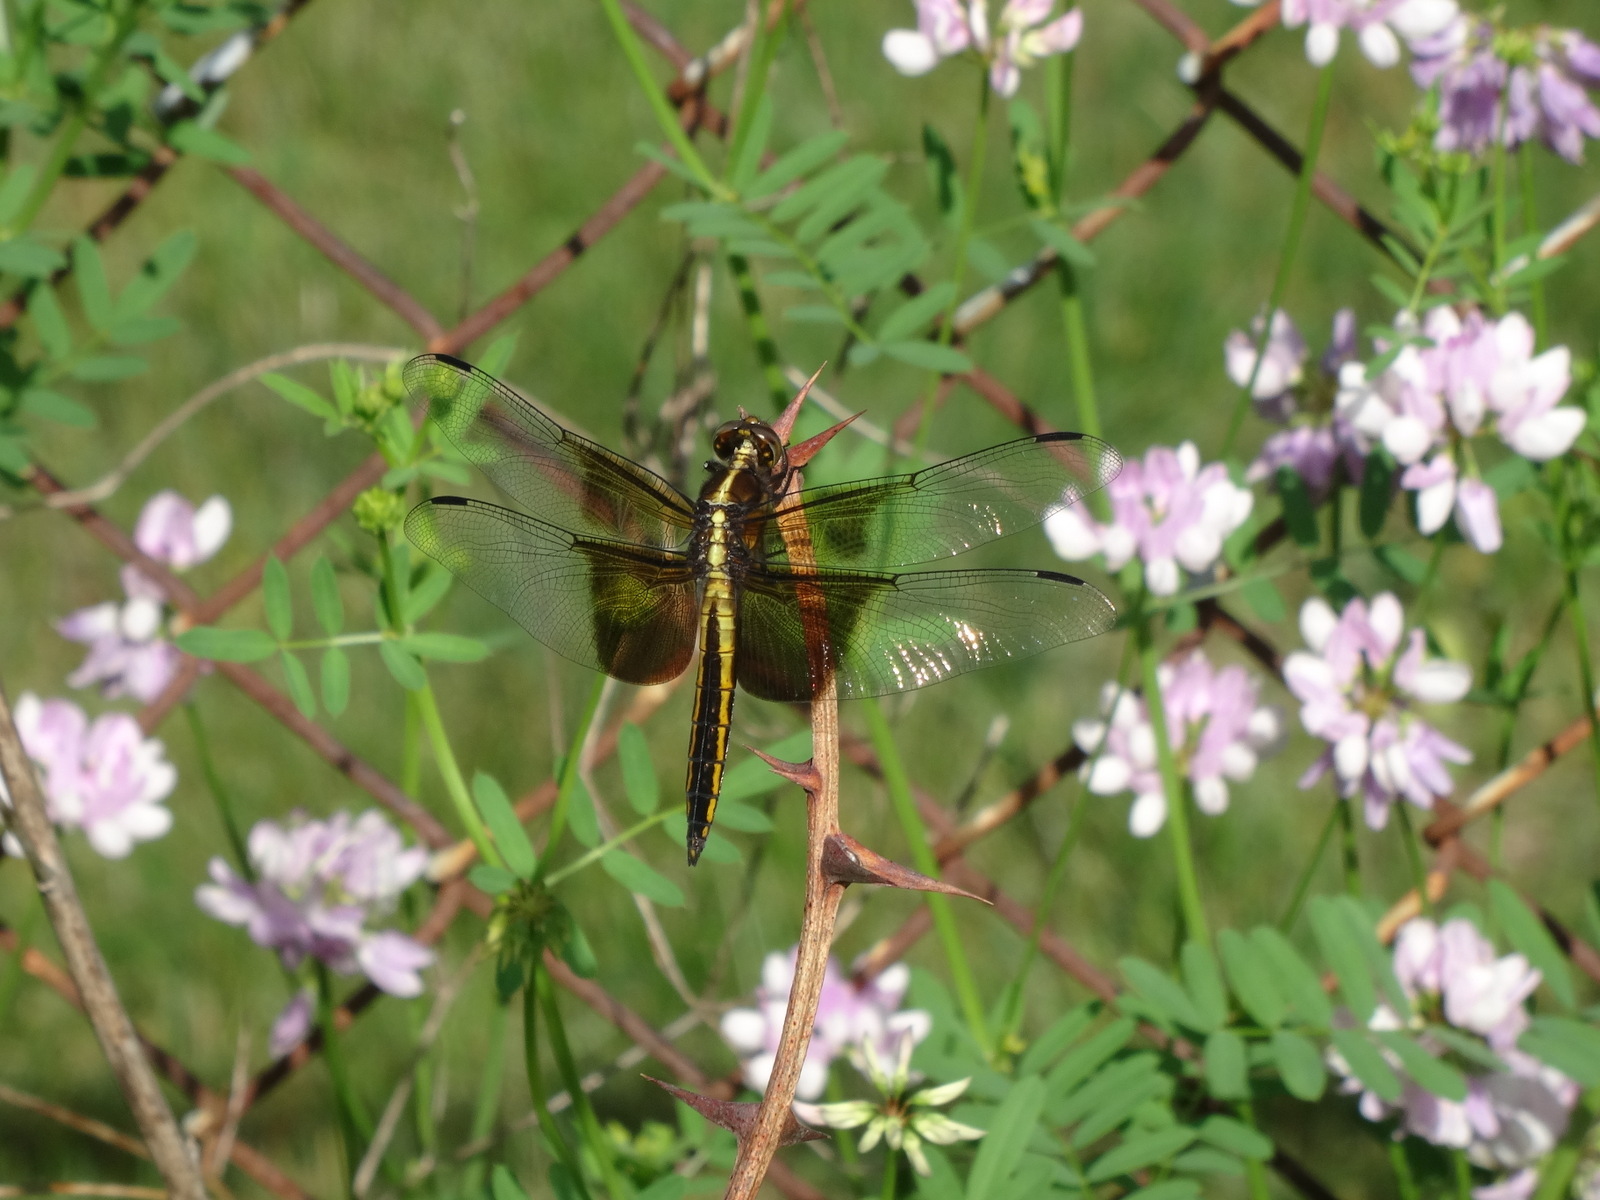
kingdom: Animalia
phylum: Arthropoda
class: Insecta
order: Odonata
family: Libellulidae
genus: Libellula
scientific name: Libellula luctuosa
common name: Widow skimmer
